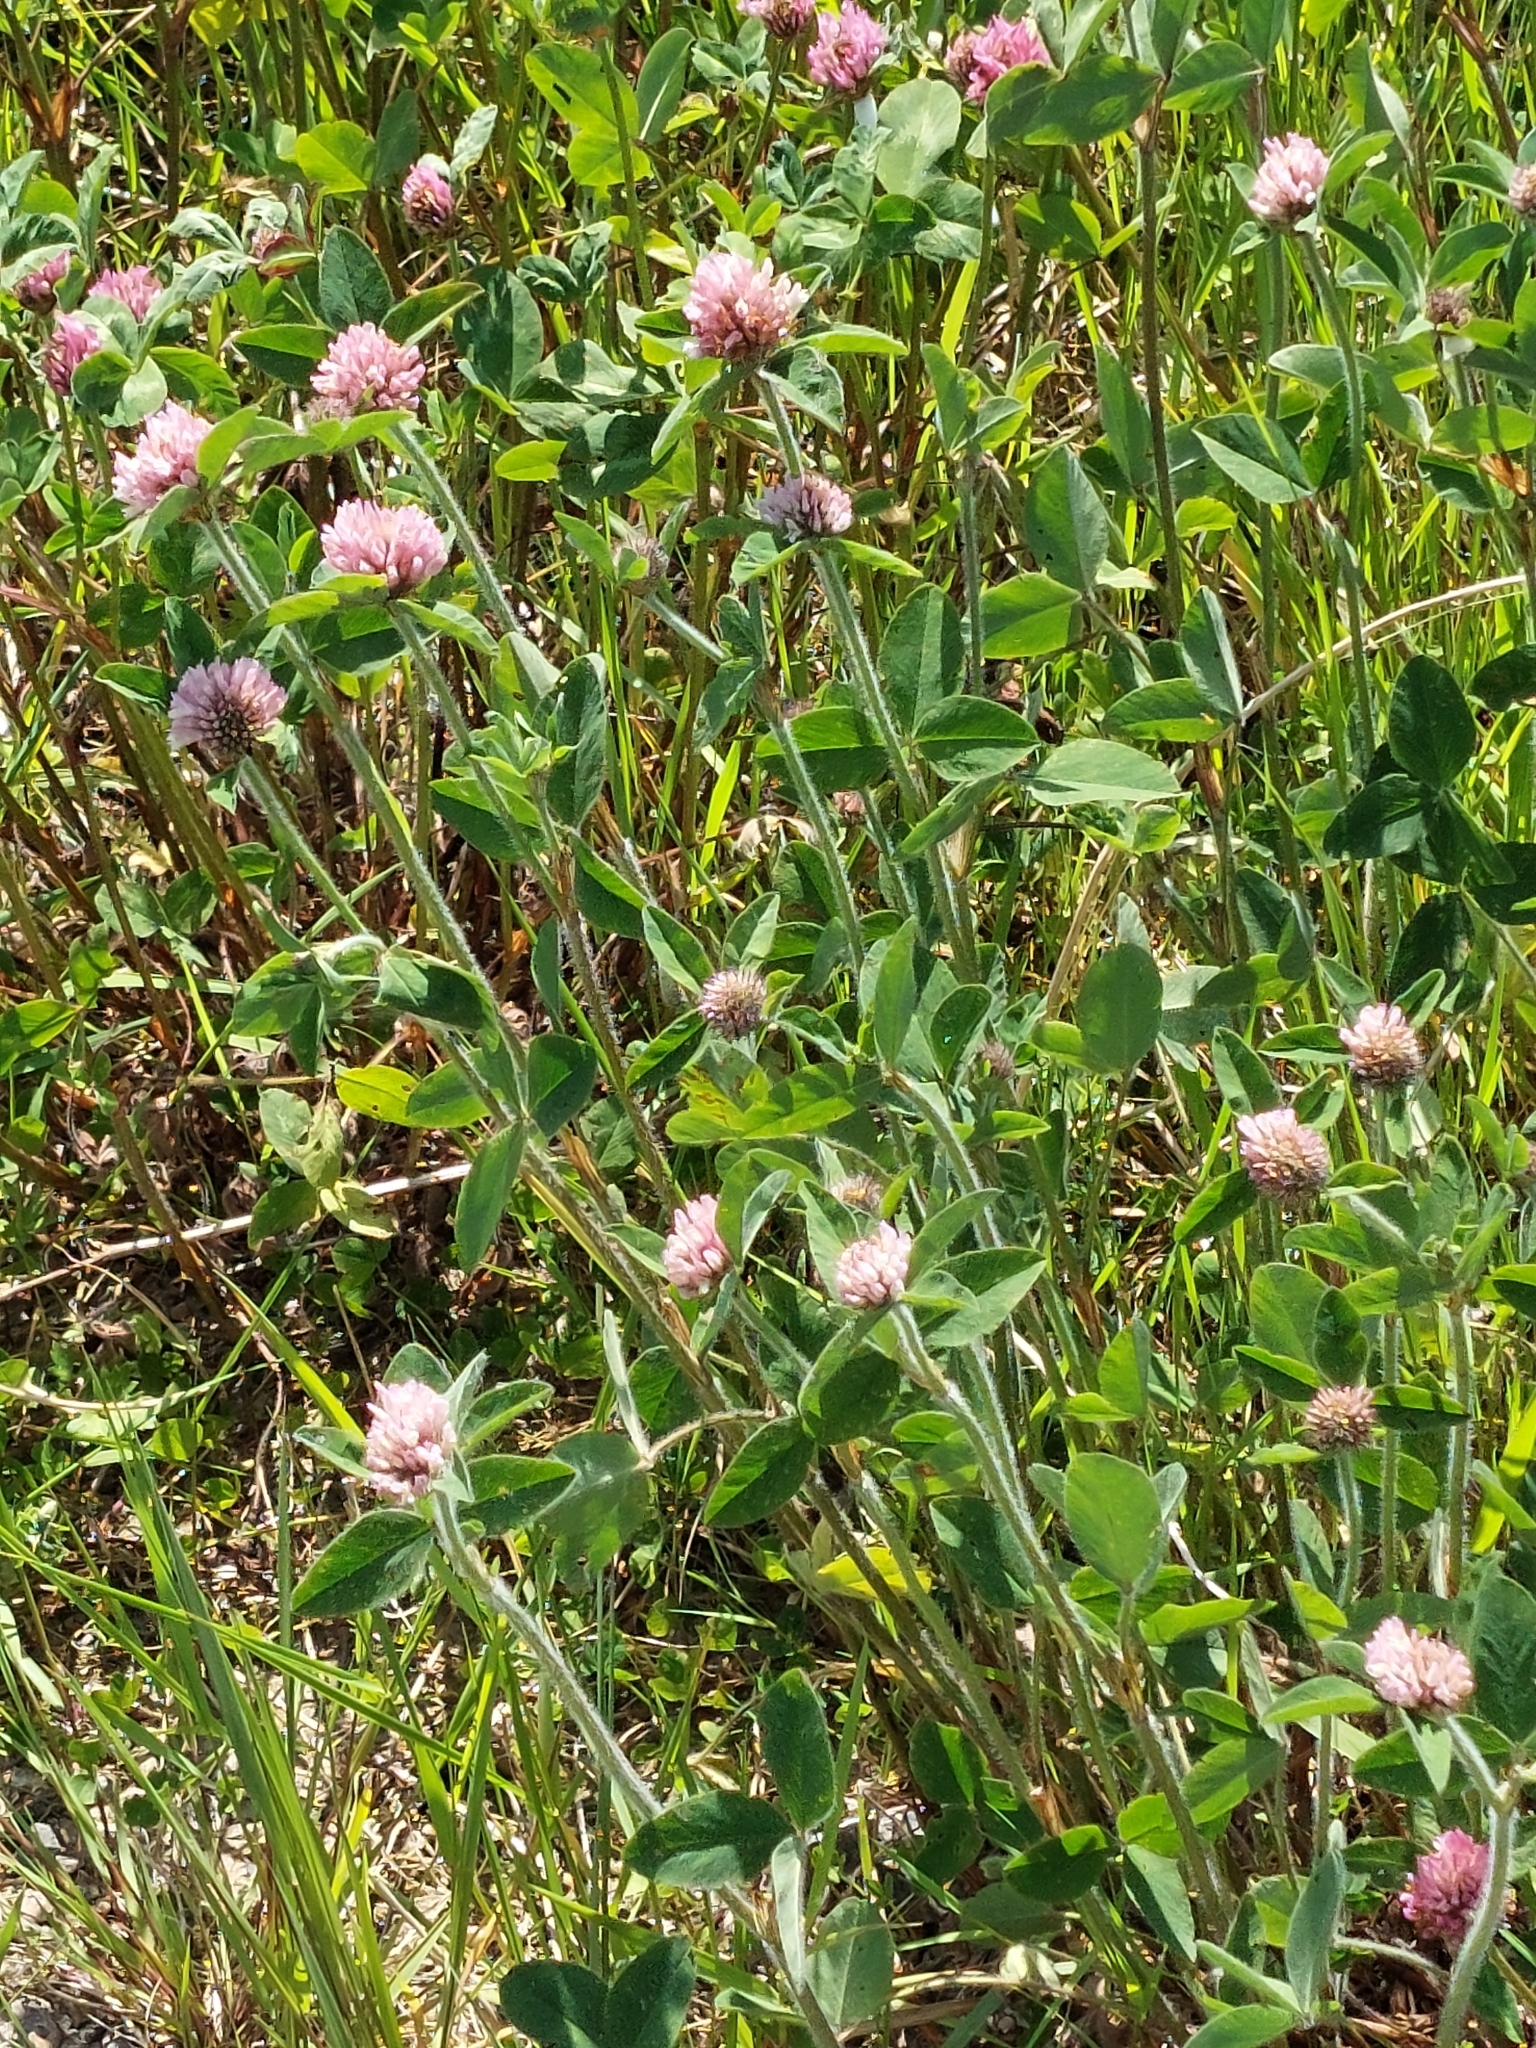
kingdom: Plantae
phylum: Tracheophyta
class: Magnoliopsida
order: Fabales
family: Fabaceae
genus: Trifolium
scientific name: Trifolium pratense
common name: Red clover
